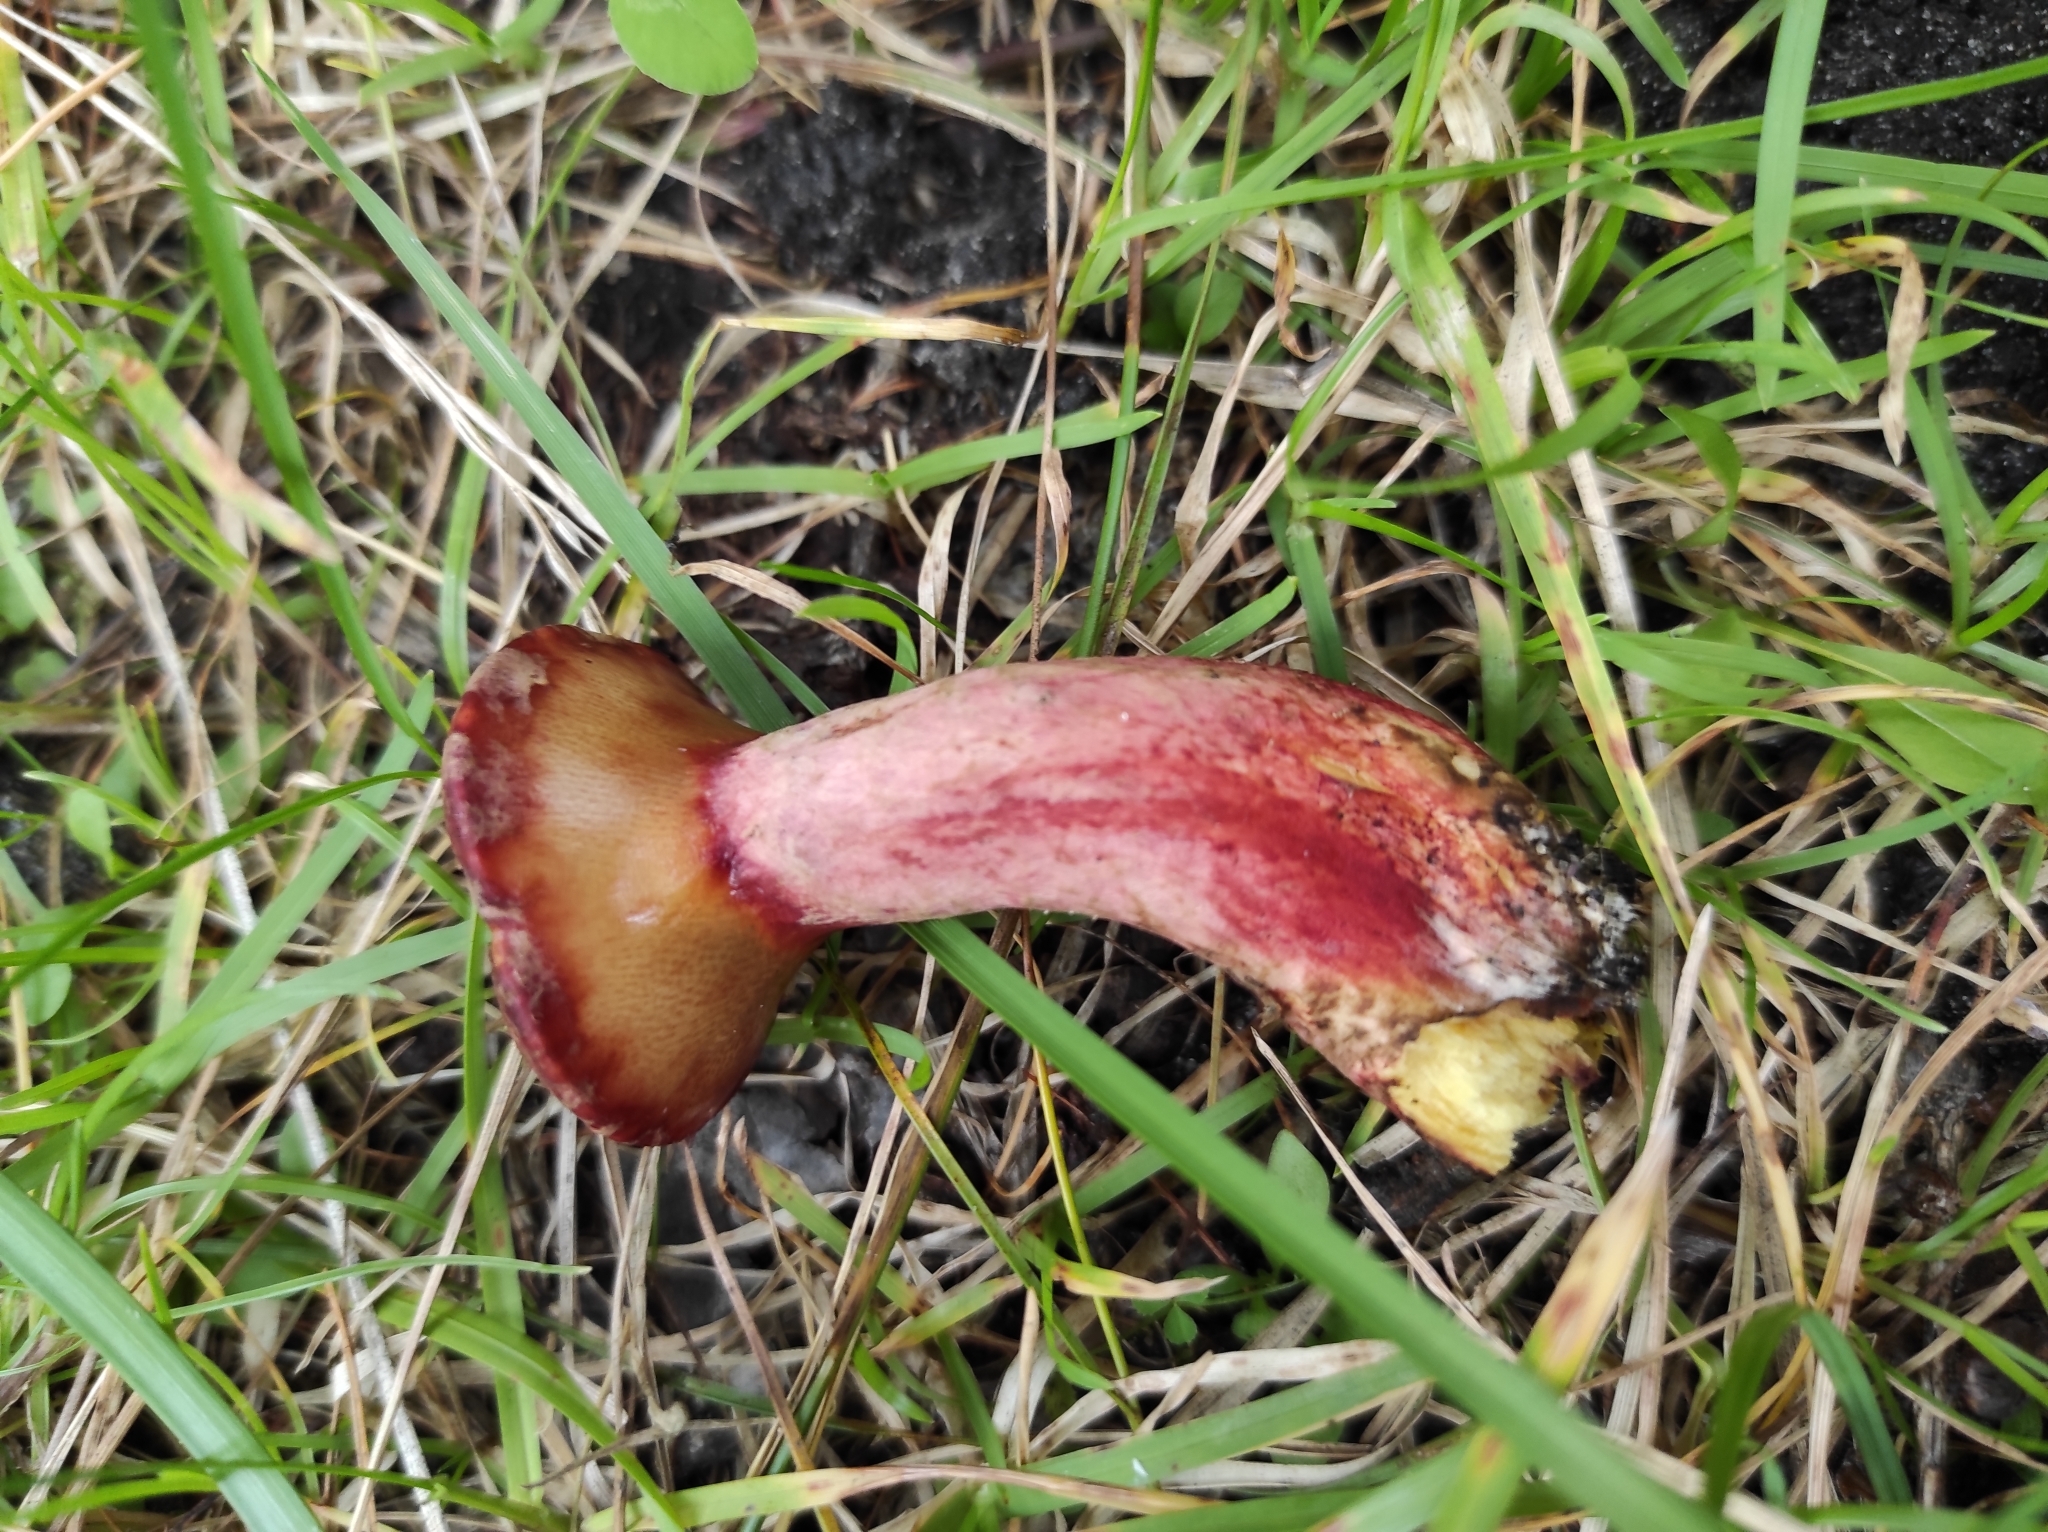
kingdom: Fungi
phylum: Basidiomycota
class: Agaricomycetes
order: Boletales
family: Suillaceae
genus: Boletinus
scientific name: Boletinus asiaticus
